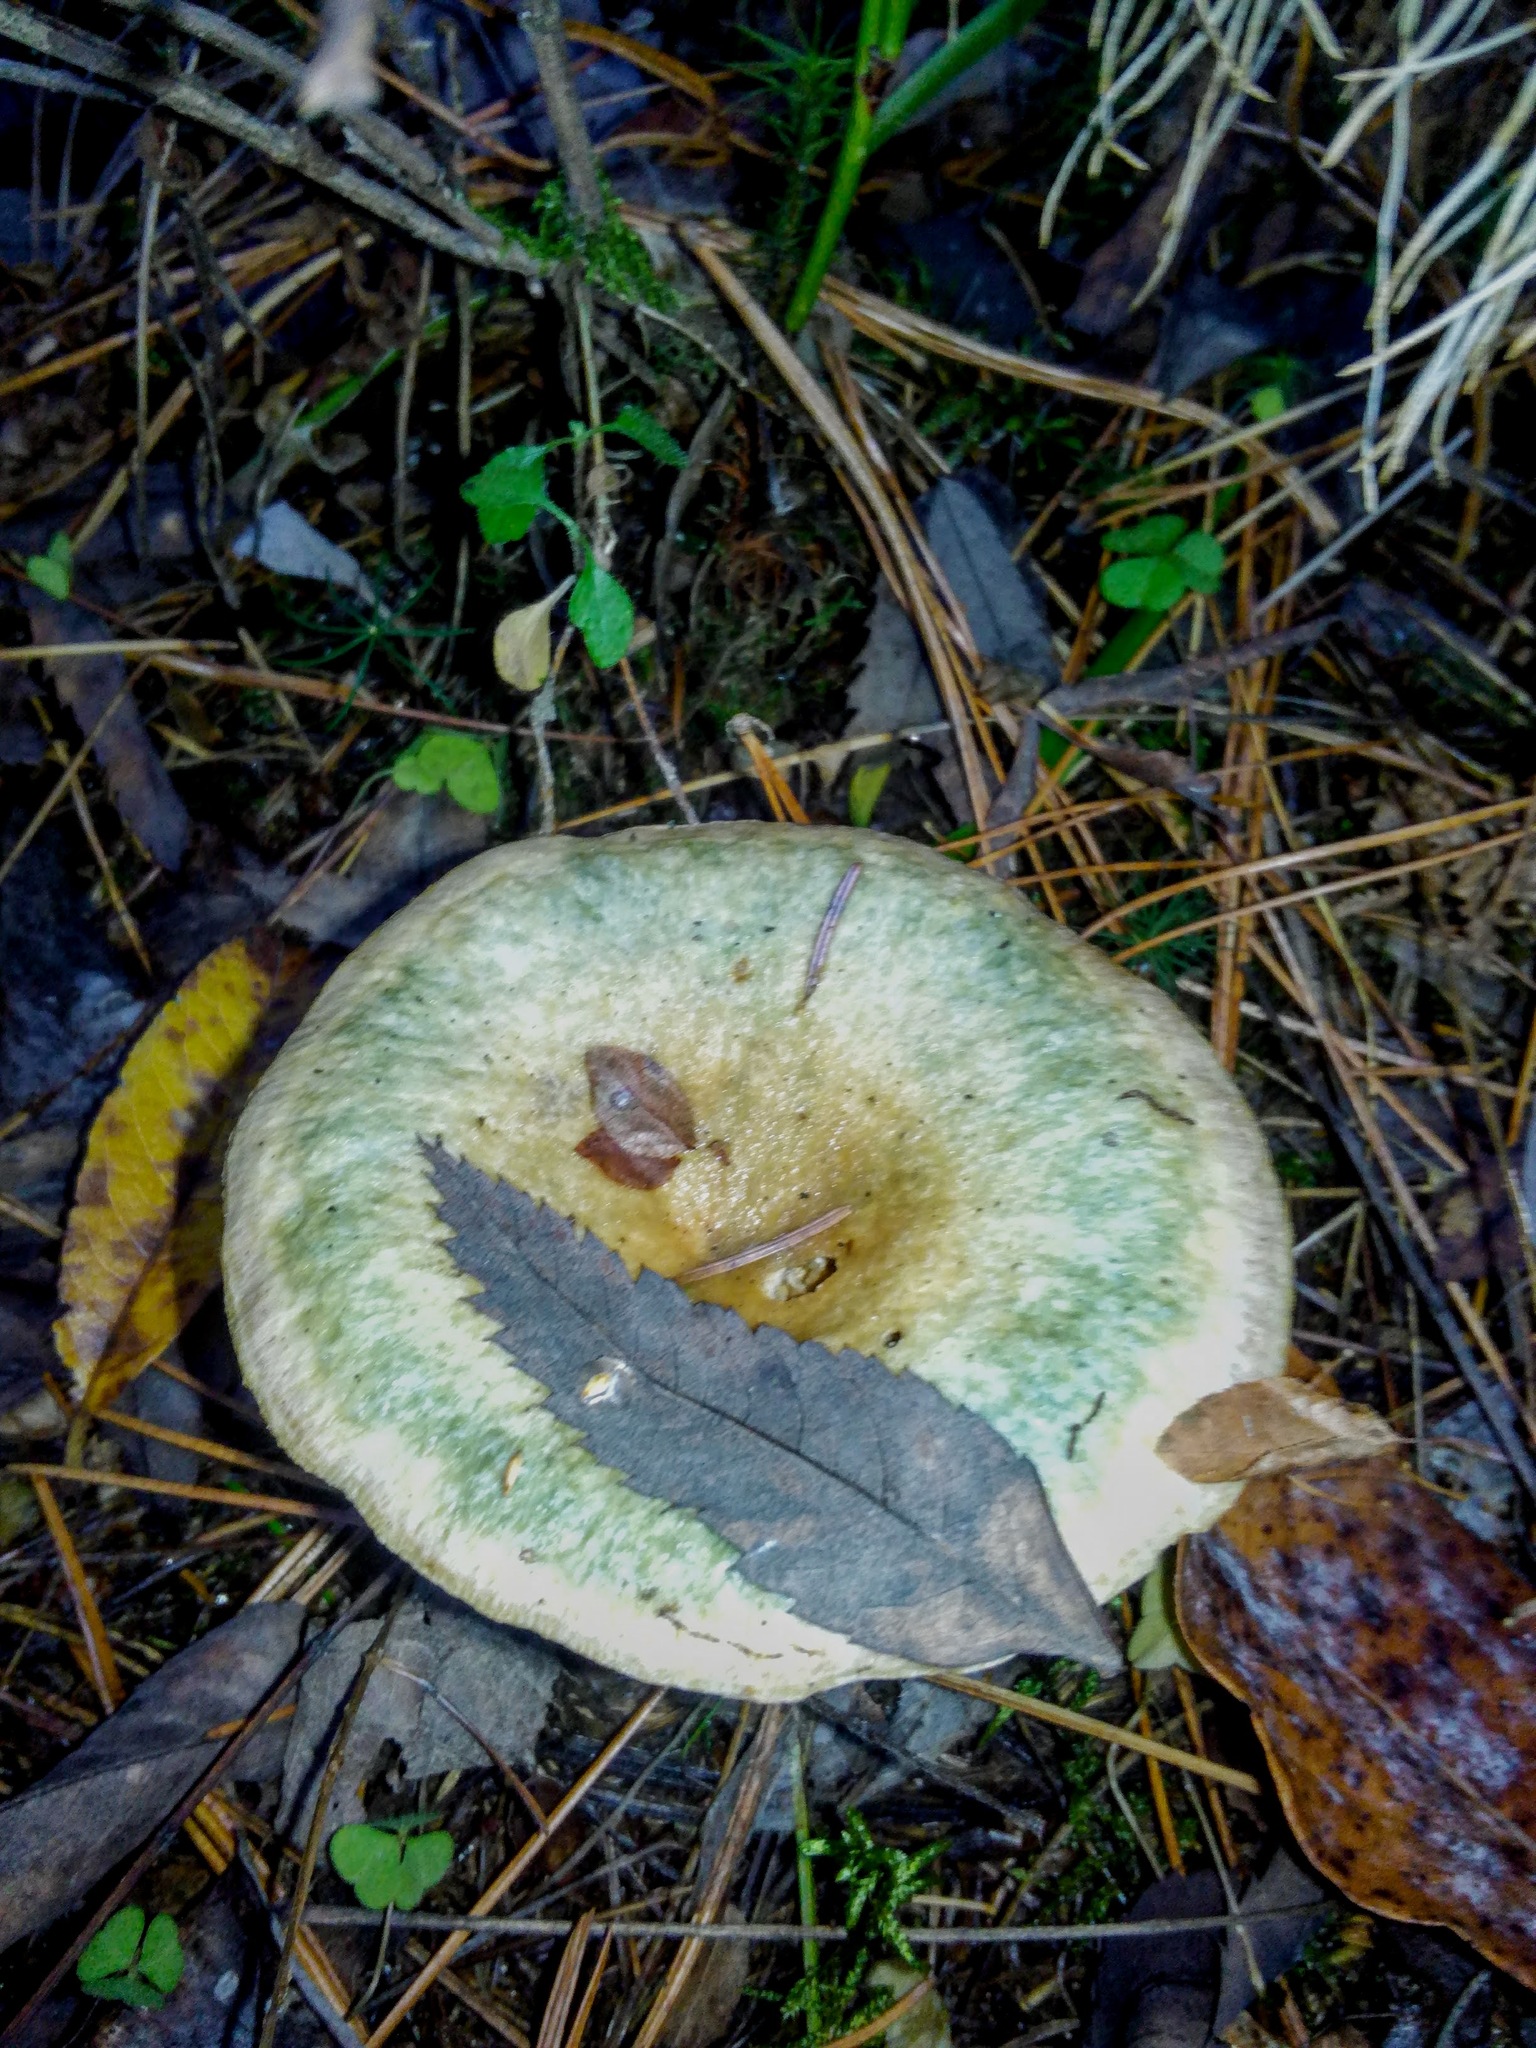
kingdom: Fungi
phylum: Basidiomycota
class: Agaricomycetes
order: Russulales
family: Russulaceae
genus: Lactarius
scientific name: Lactarius deterrimus
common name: False saffron milkcap
